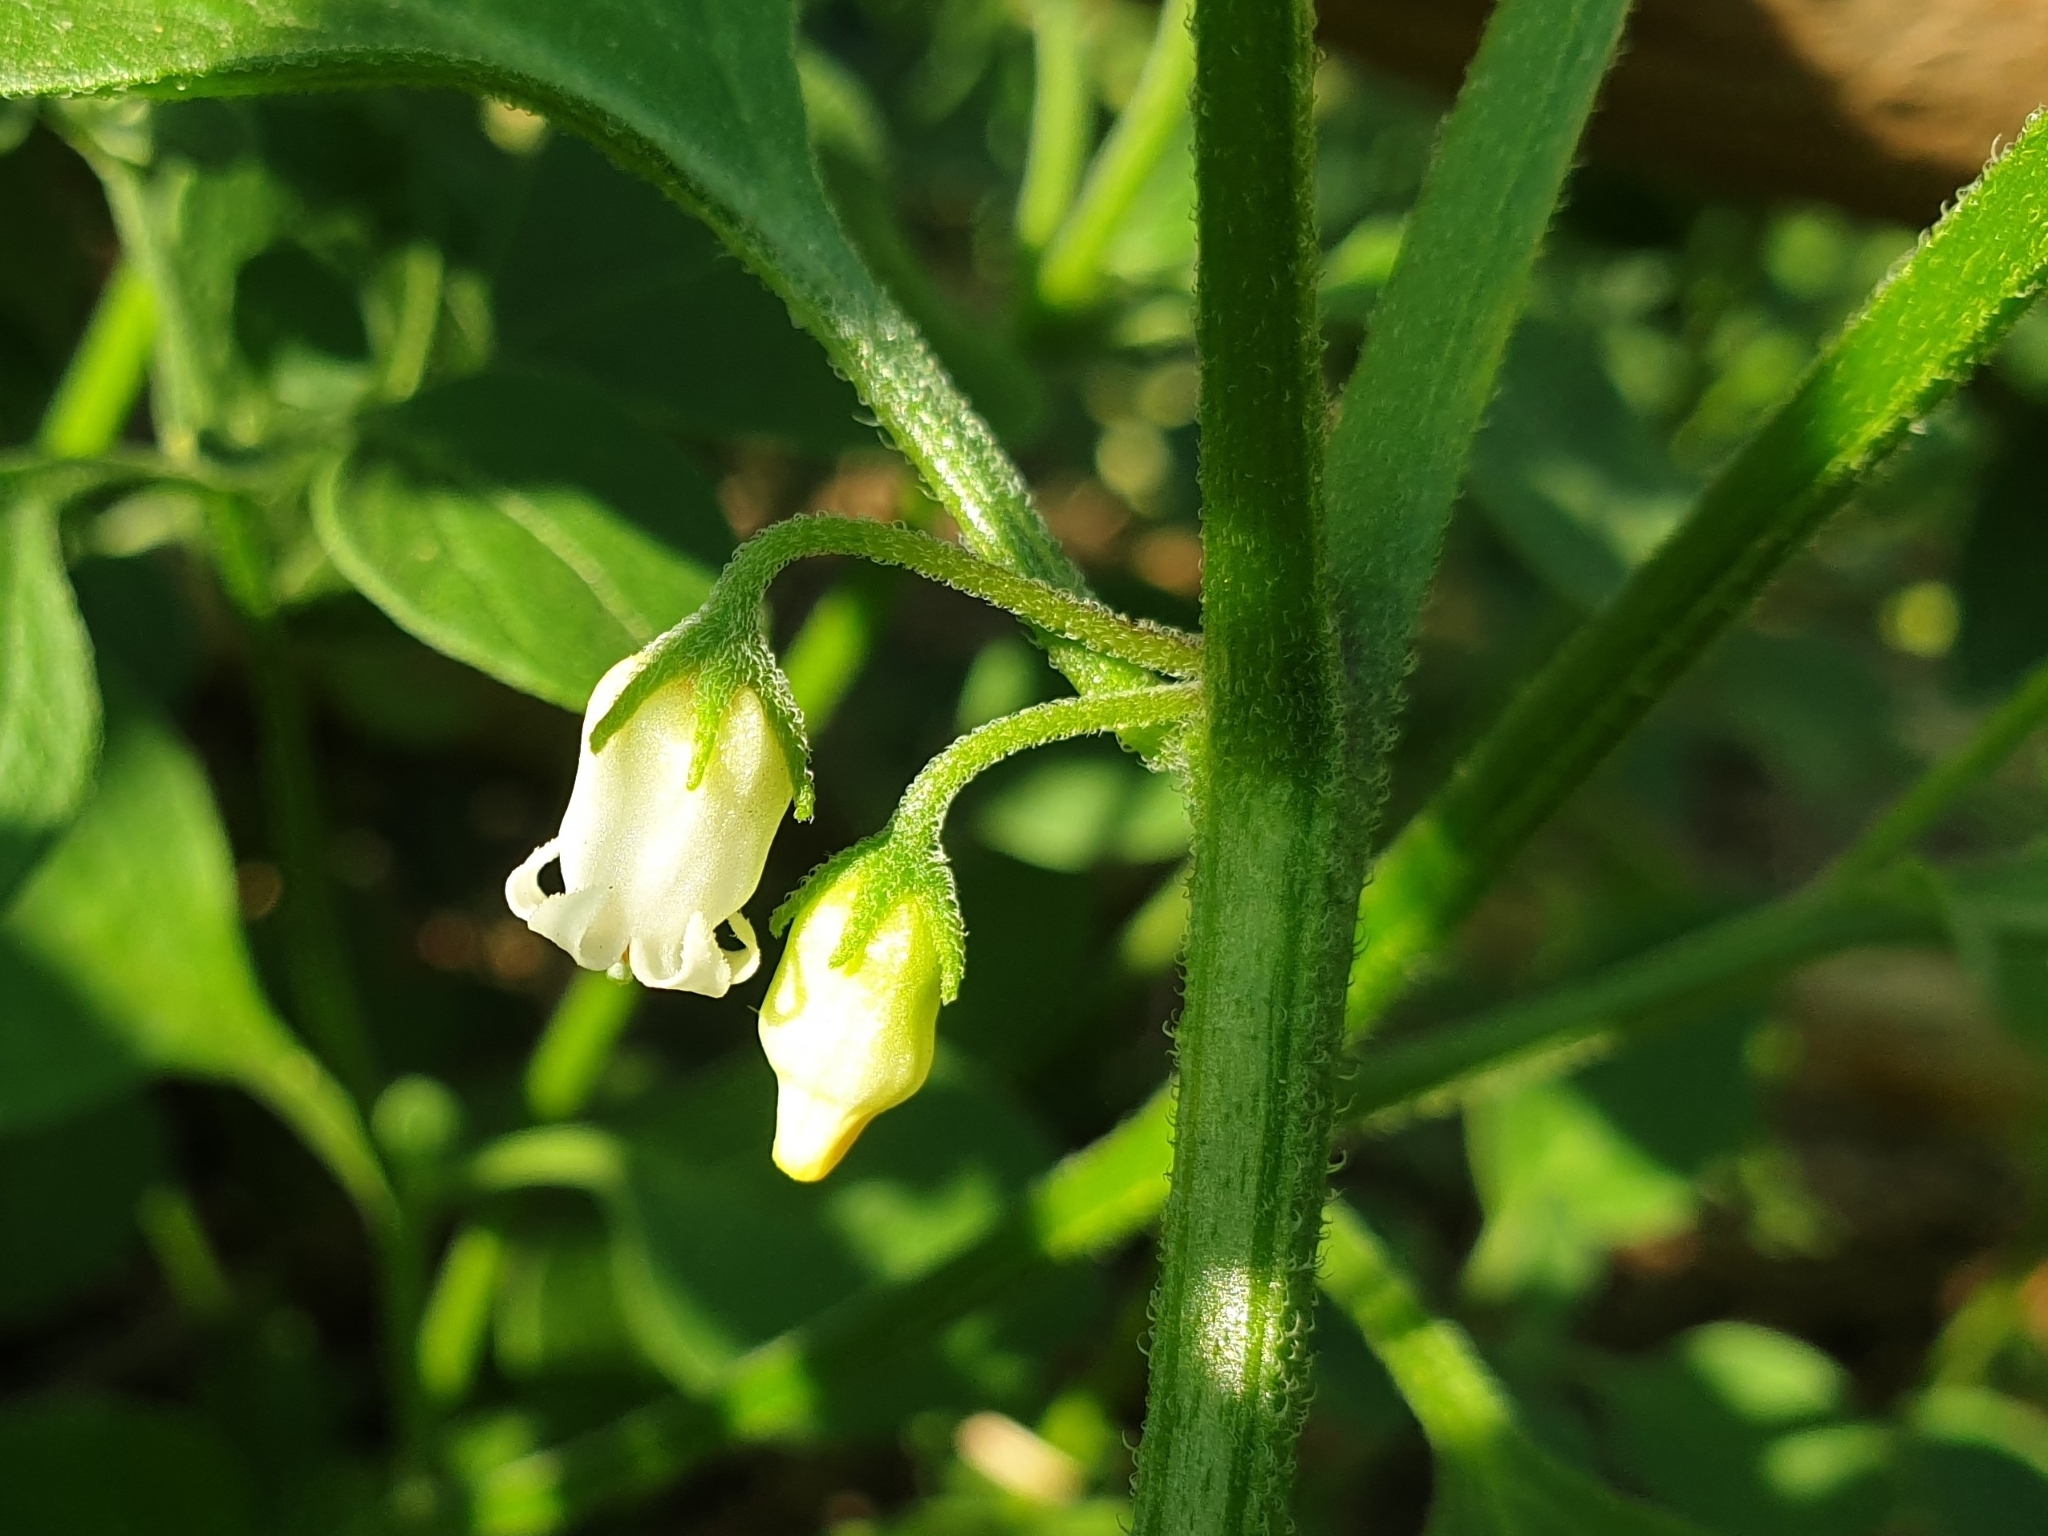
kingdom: Plantae
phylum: Tracheophyta
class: Magnoliopsida
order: Solanales
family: Solanaceae
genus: Salpichroa
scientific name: Salpichroa origanifolia
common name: Lily-of-the-valley-vine
